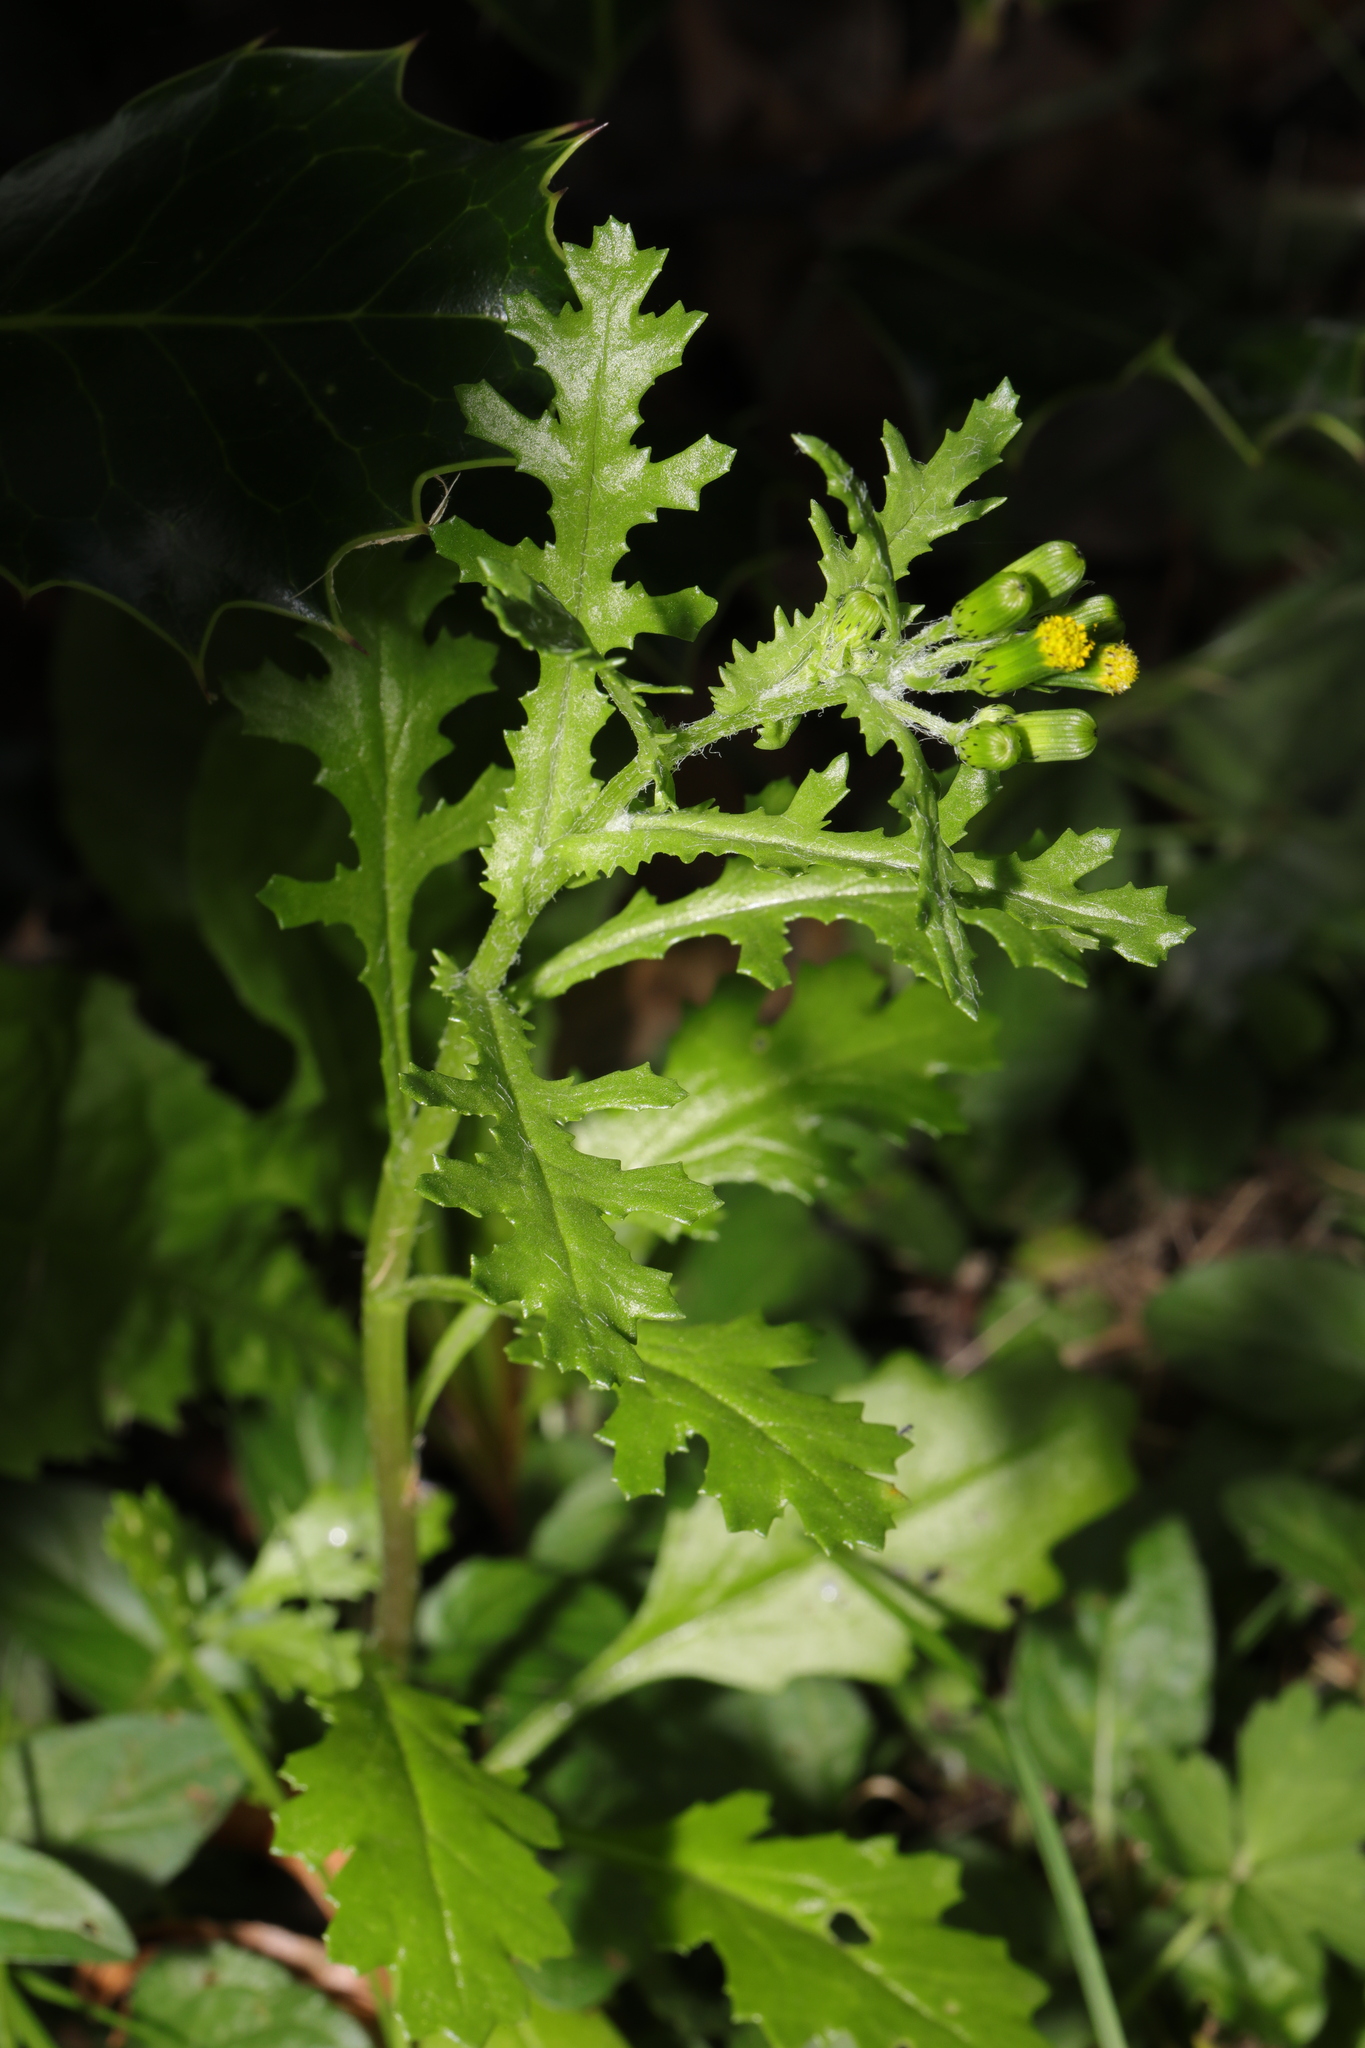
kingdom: Plantae
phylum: Tracheophyta
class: Magnoliopsida
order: Asterales
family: Asteraceae
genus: Senecio
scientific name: Senecio vulgaris
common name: Old-man-in-the-spring
